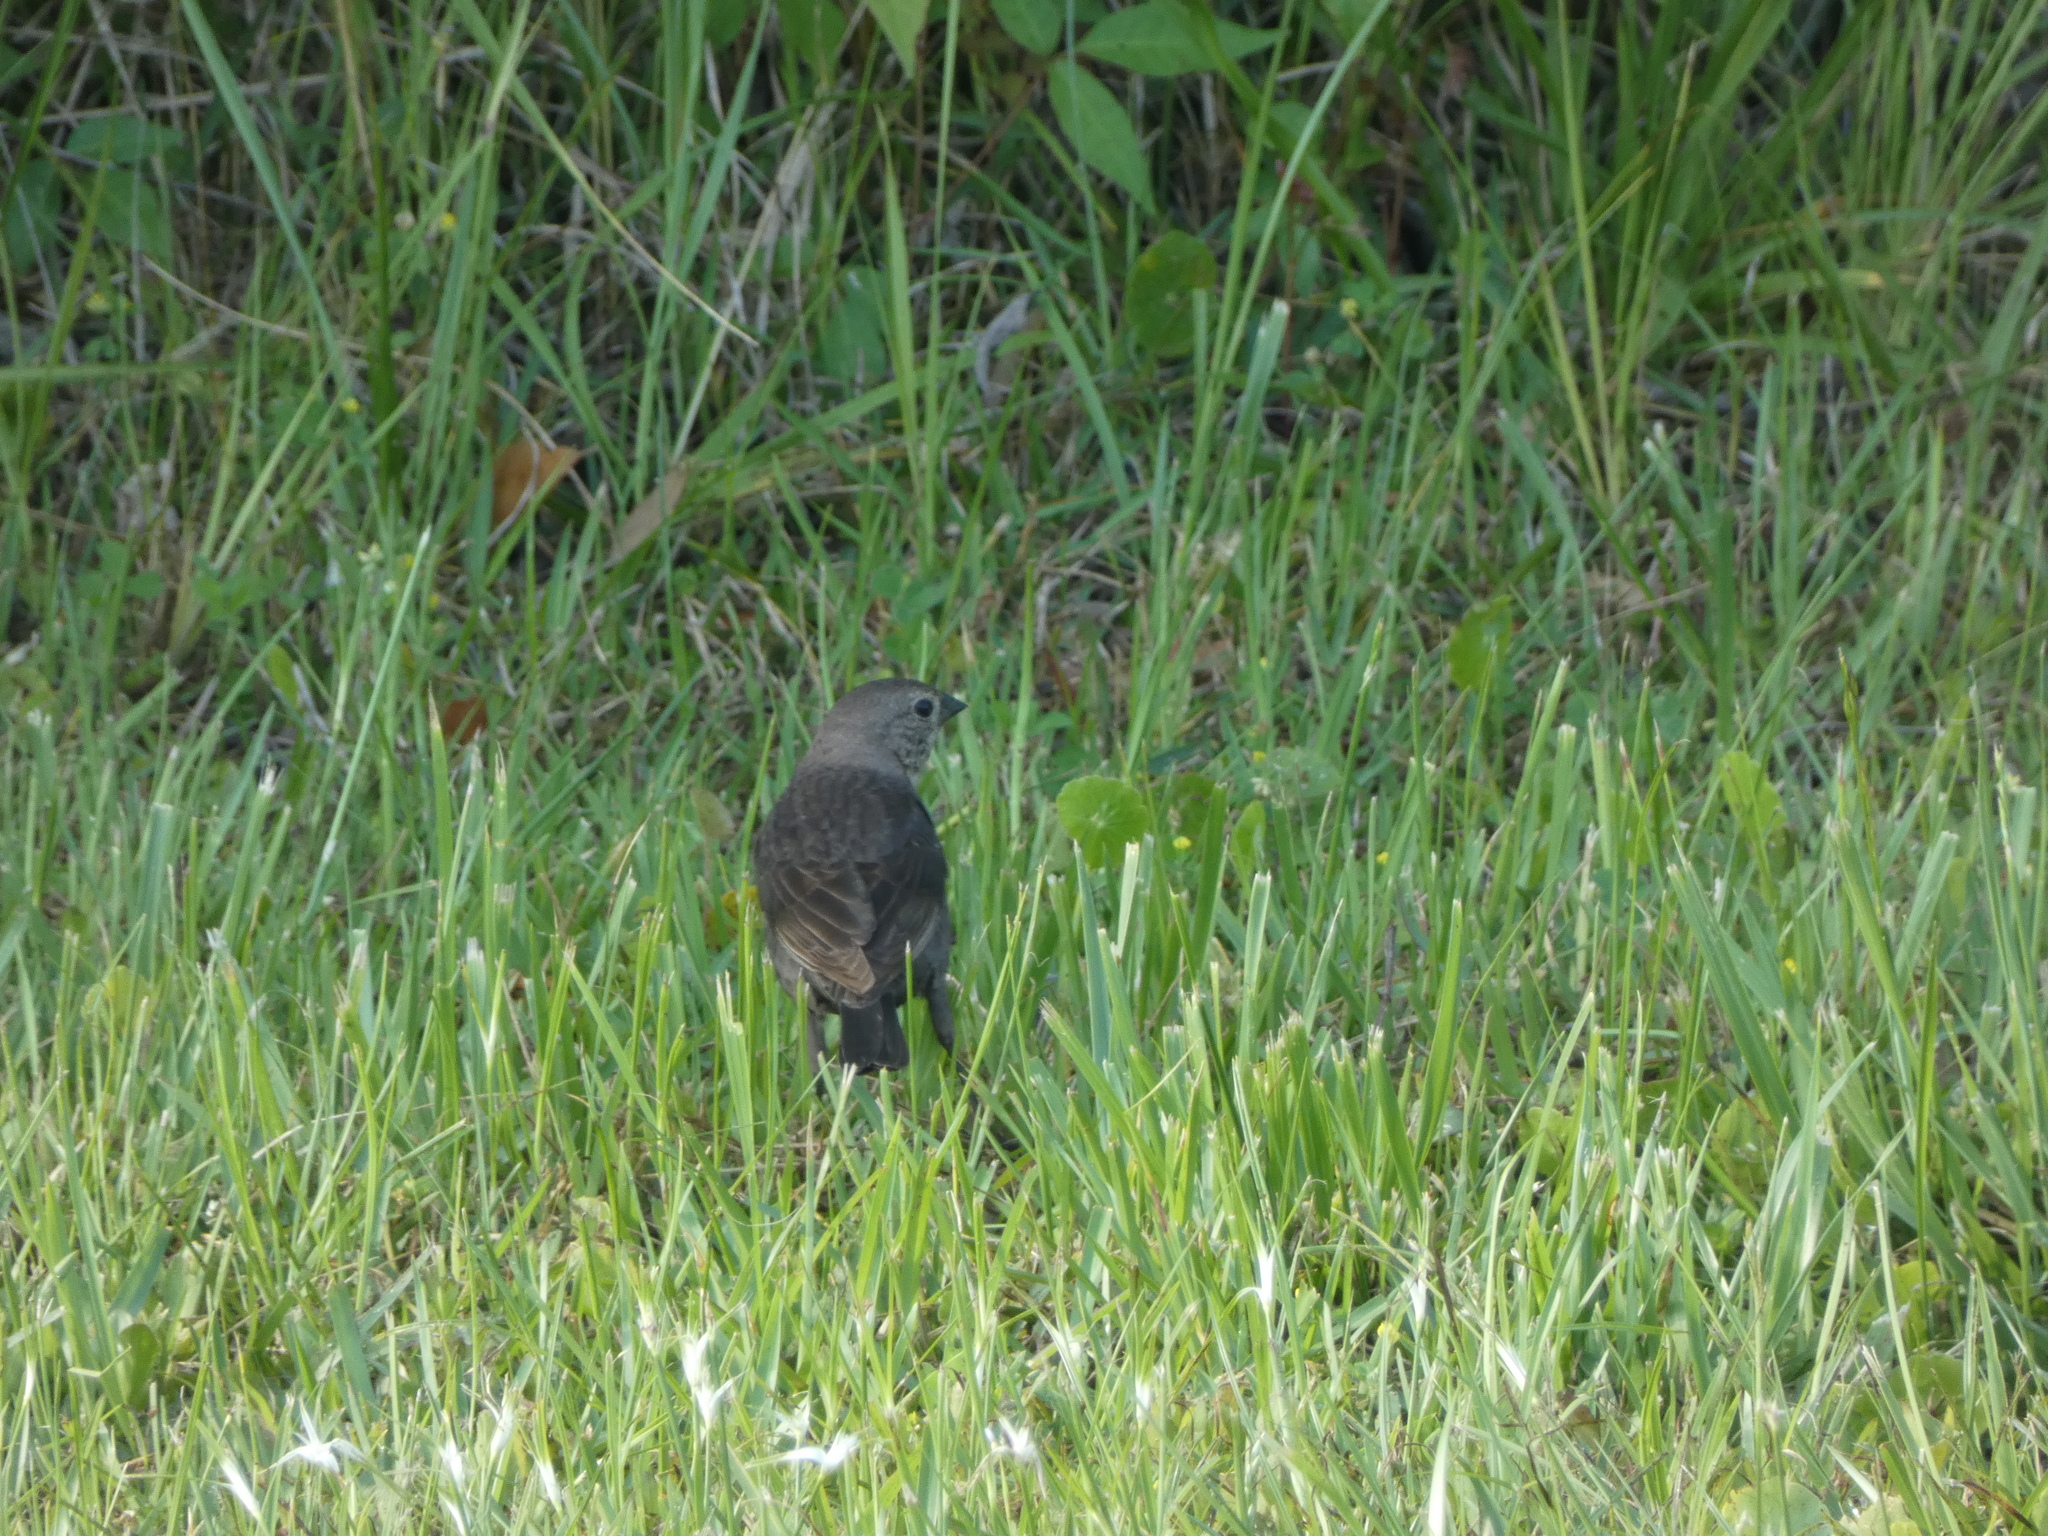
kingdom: Animalia
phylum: Chordata
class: Aves
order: Passeriformes
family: Icteridae
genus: Molothrus
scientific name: Molothrus ater
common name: Brown-headed cowbird
